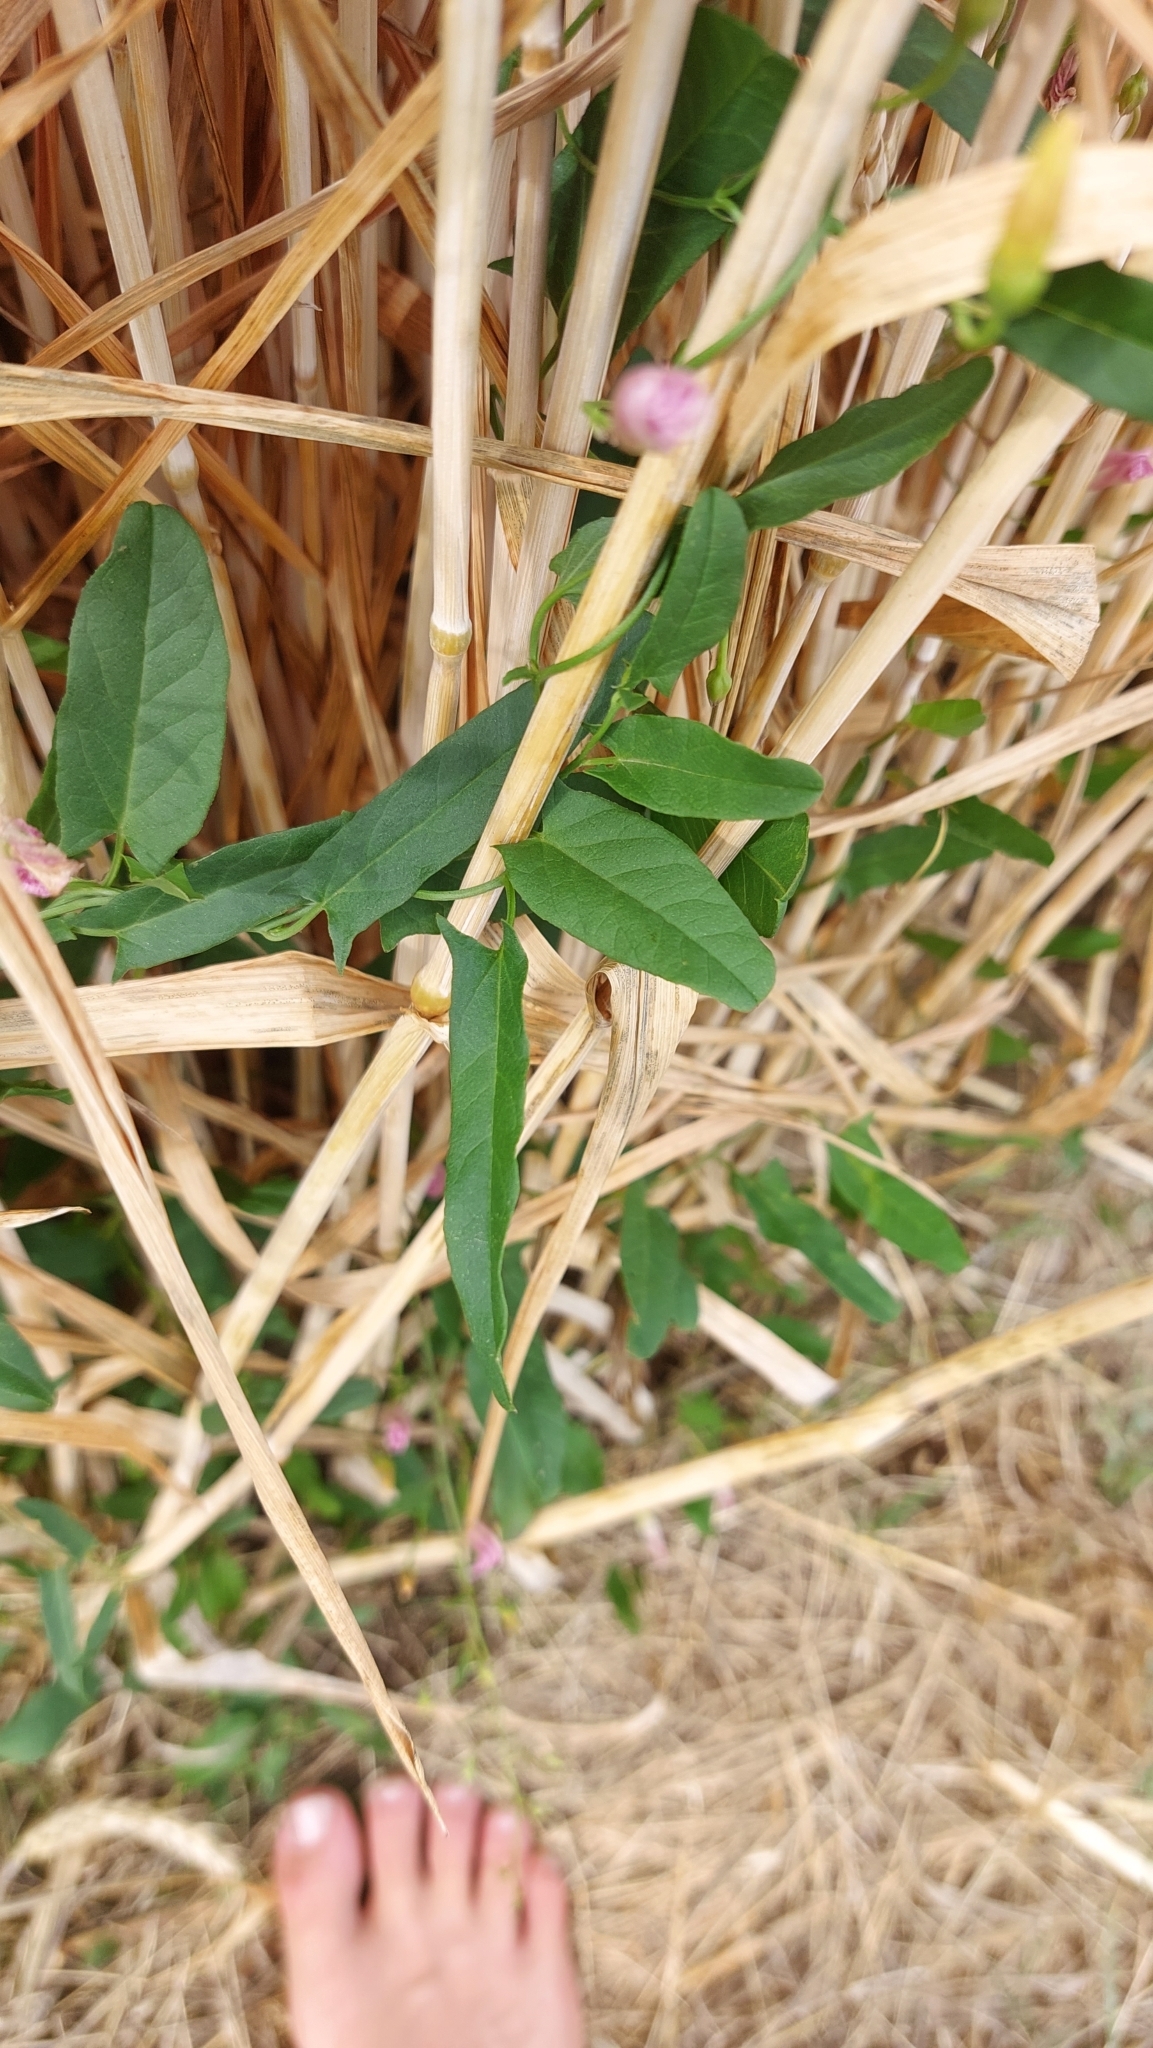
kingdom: Plantae
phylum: Tracheophyta
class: Magnoliopsida
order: Solanales
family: Convolvulaceae
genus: Convolvulus
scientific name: Convolvulus arvensis
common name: Field bindweed
